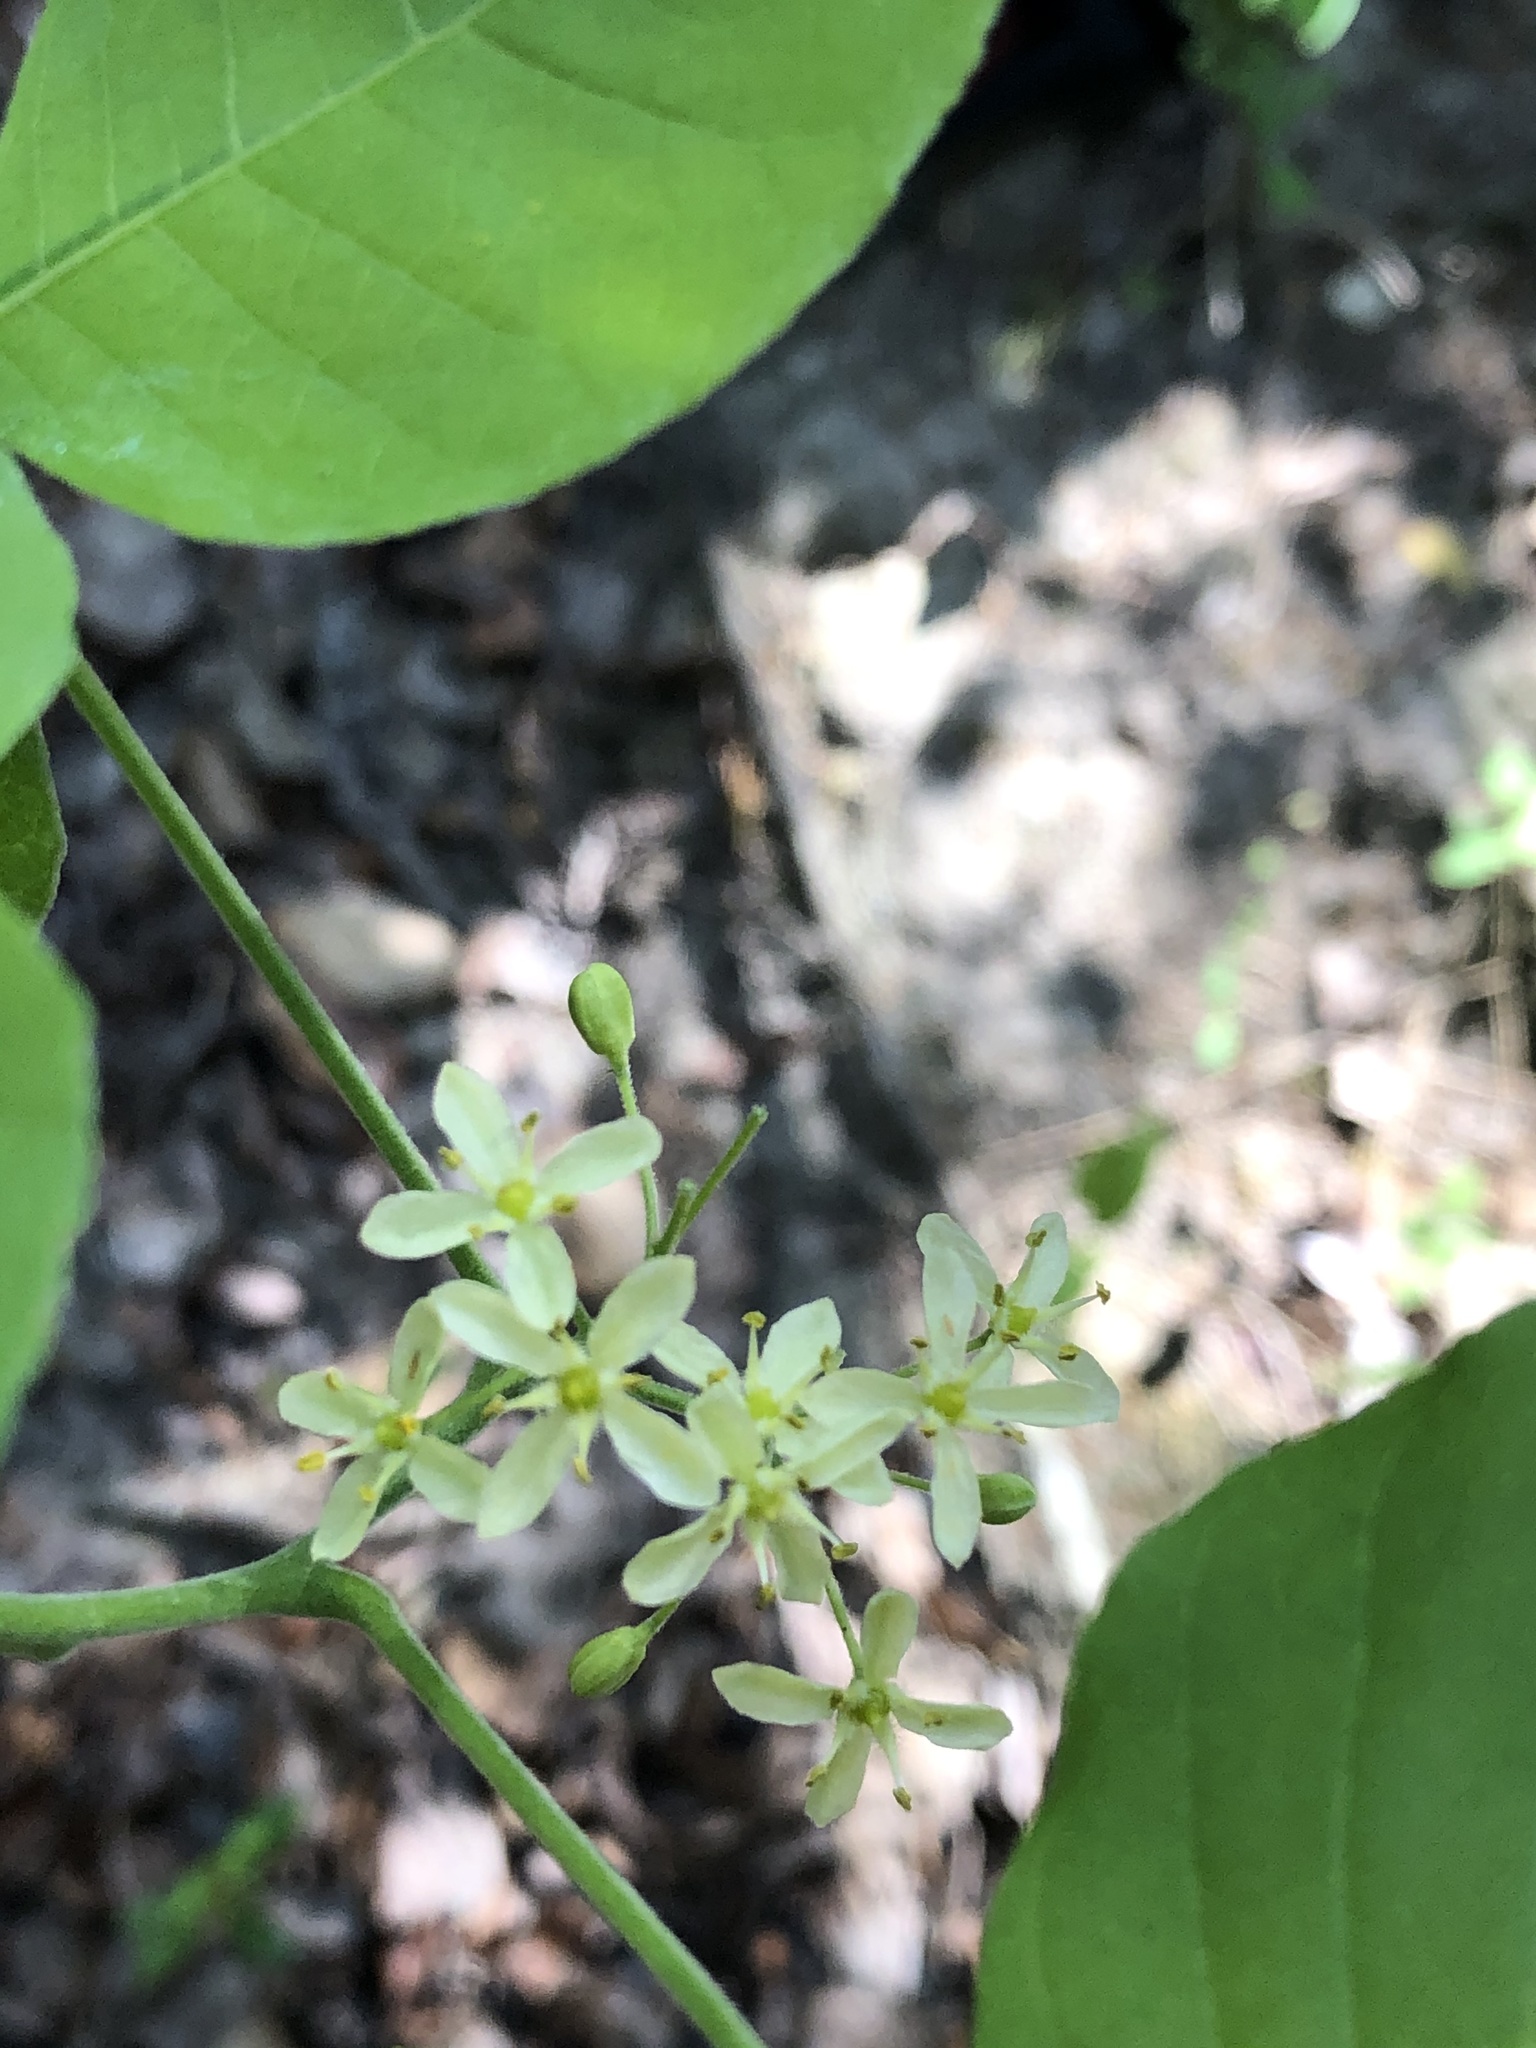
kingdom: Plantae
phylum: Tracheophyta
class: Magnoliopsida
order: Sapindales
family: Rutaceae
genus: Ptelea
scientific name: Ptelea trifoliata
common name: Common hop-tree
